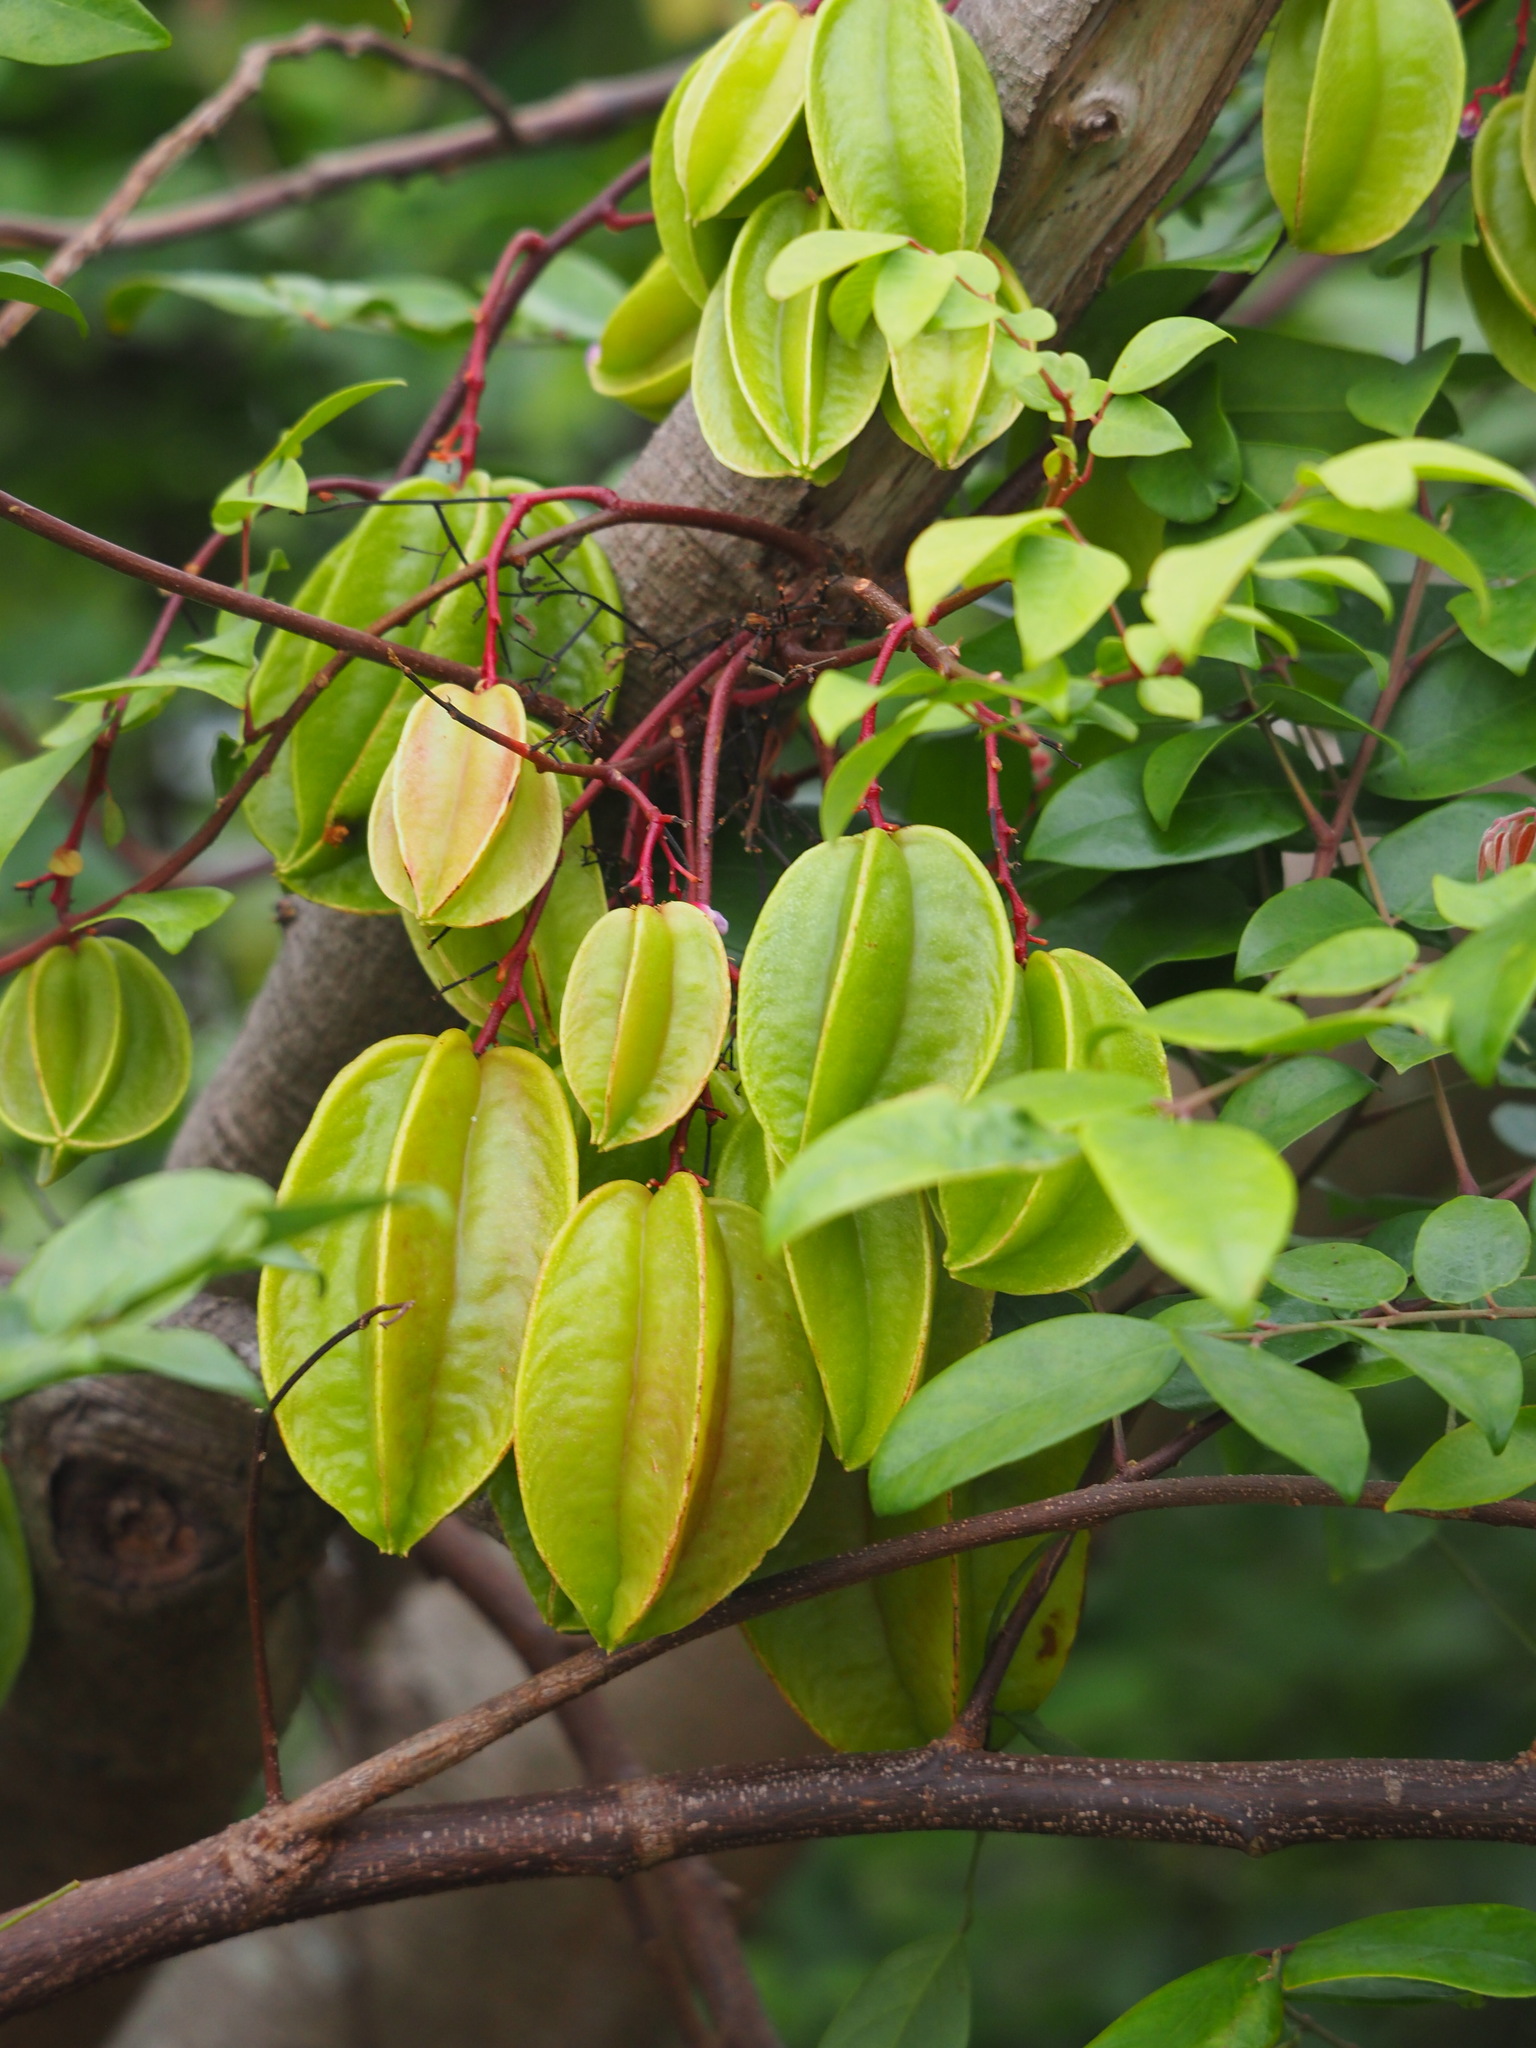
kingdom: Plantae
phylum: Tracheophyta
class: Magnoliopsida
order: Oxalidales
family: Oxalidaceae
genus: Averrhoa
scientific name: Averrhoa carambola
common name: Blimbing
